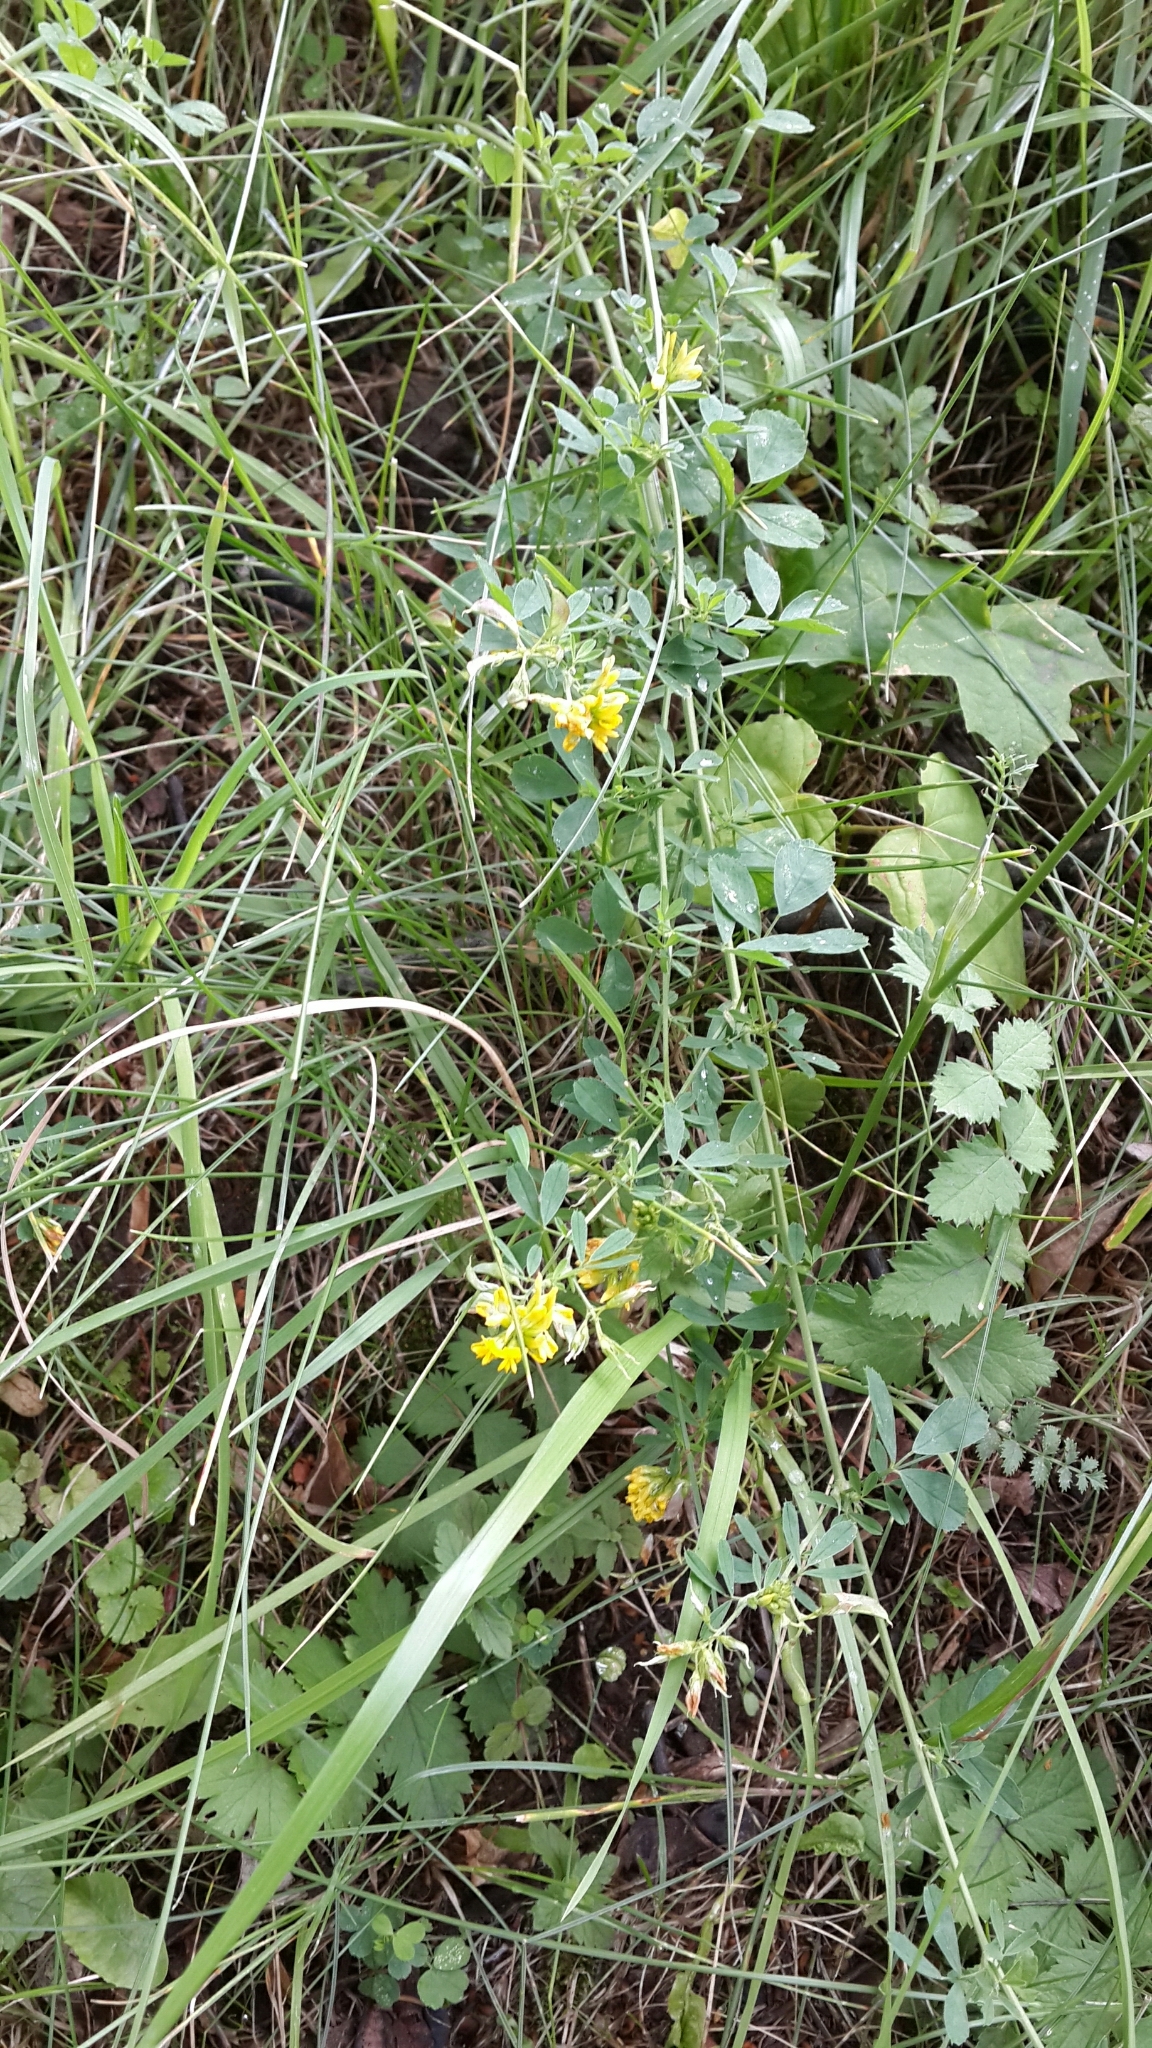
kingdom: Plantae
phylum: Tracheophyta
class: Magnoliopsida
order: Fabales
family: Fabaceae
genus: Medicago
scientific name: Medicago falcata
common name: Sickle medick
